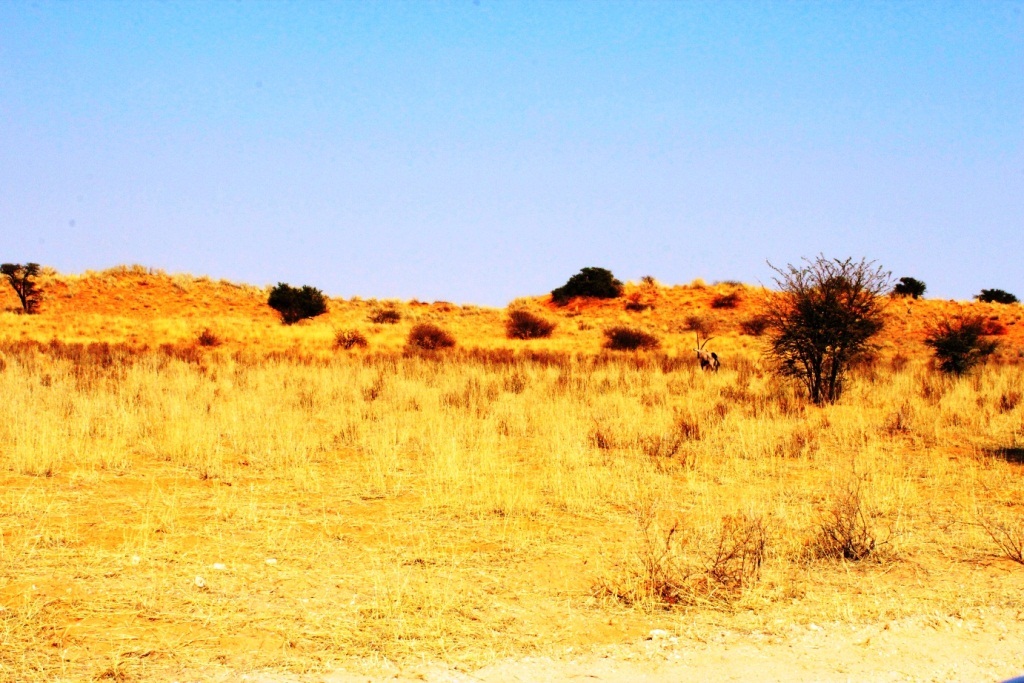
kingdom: Animalia
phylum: Chordata
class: Mammalia
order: Artiodactyla
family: Bovidae
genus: Oryx
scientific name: Oryx gazella
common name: Gemsbok
